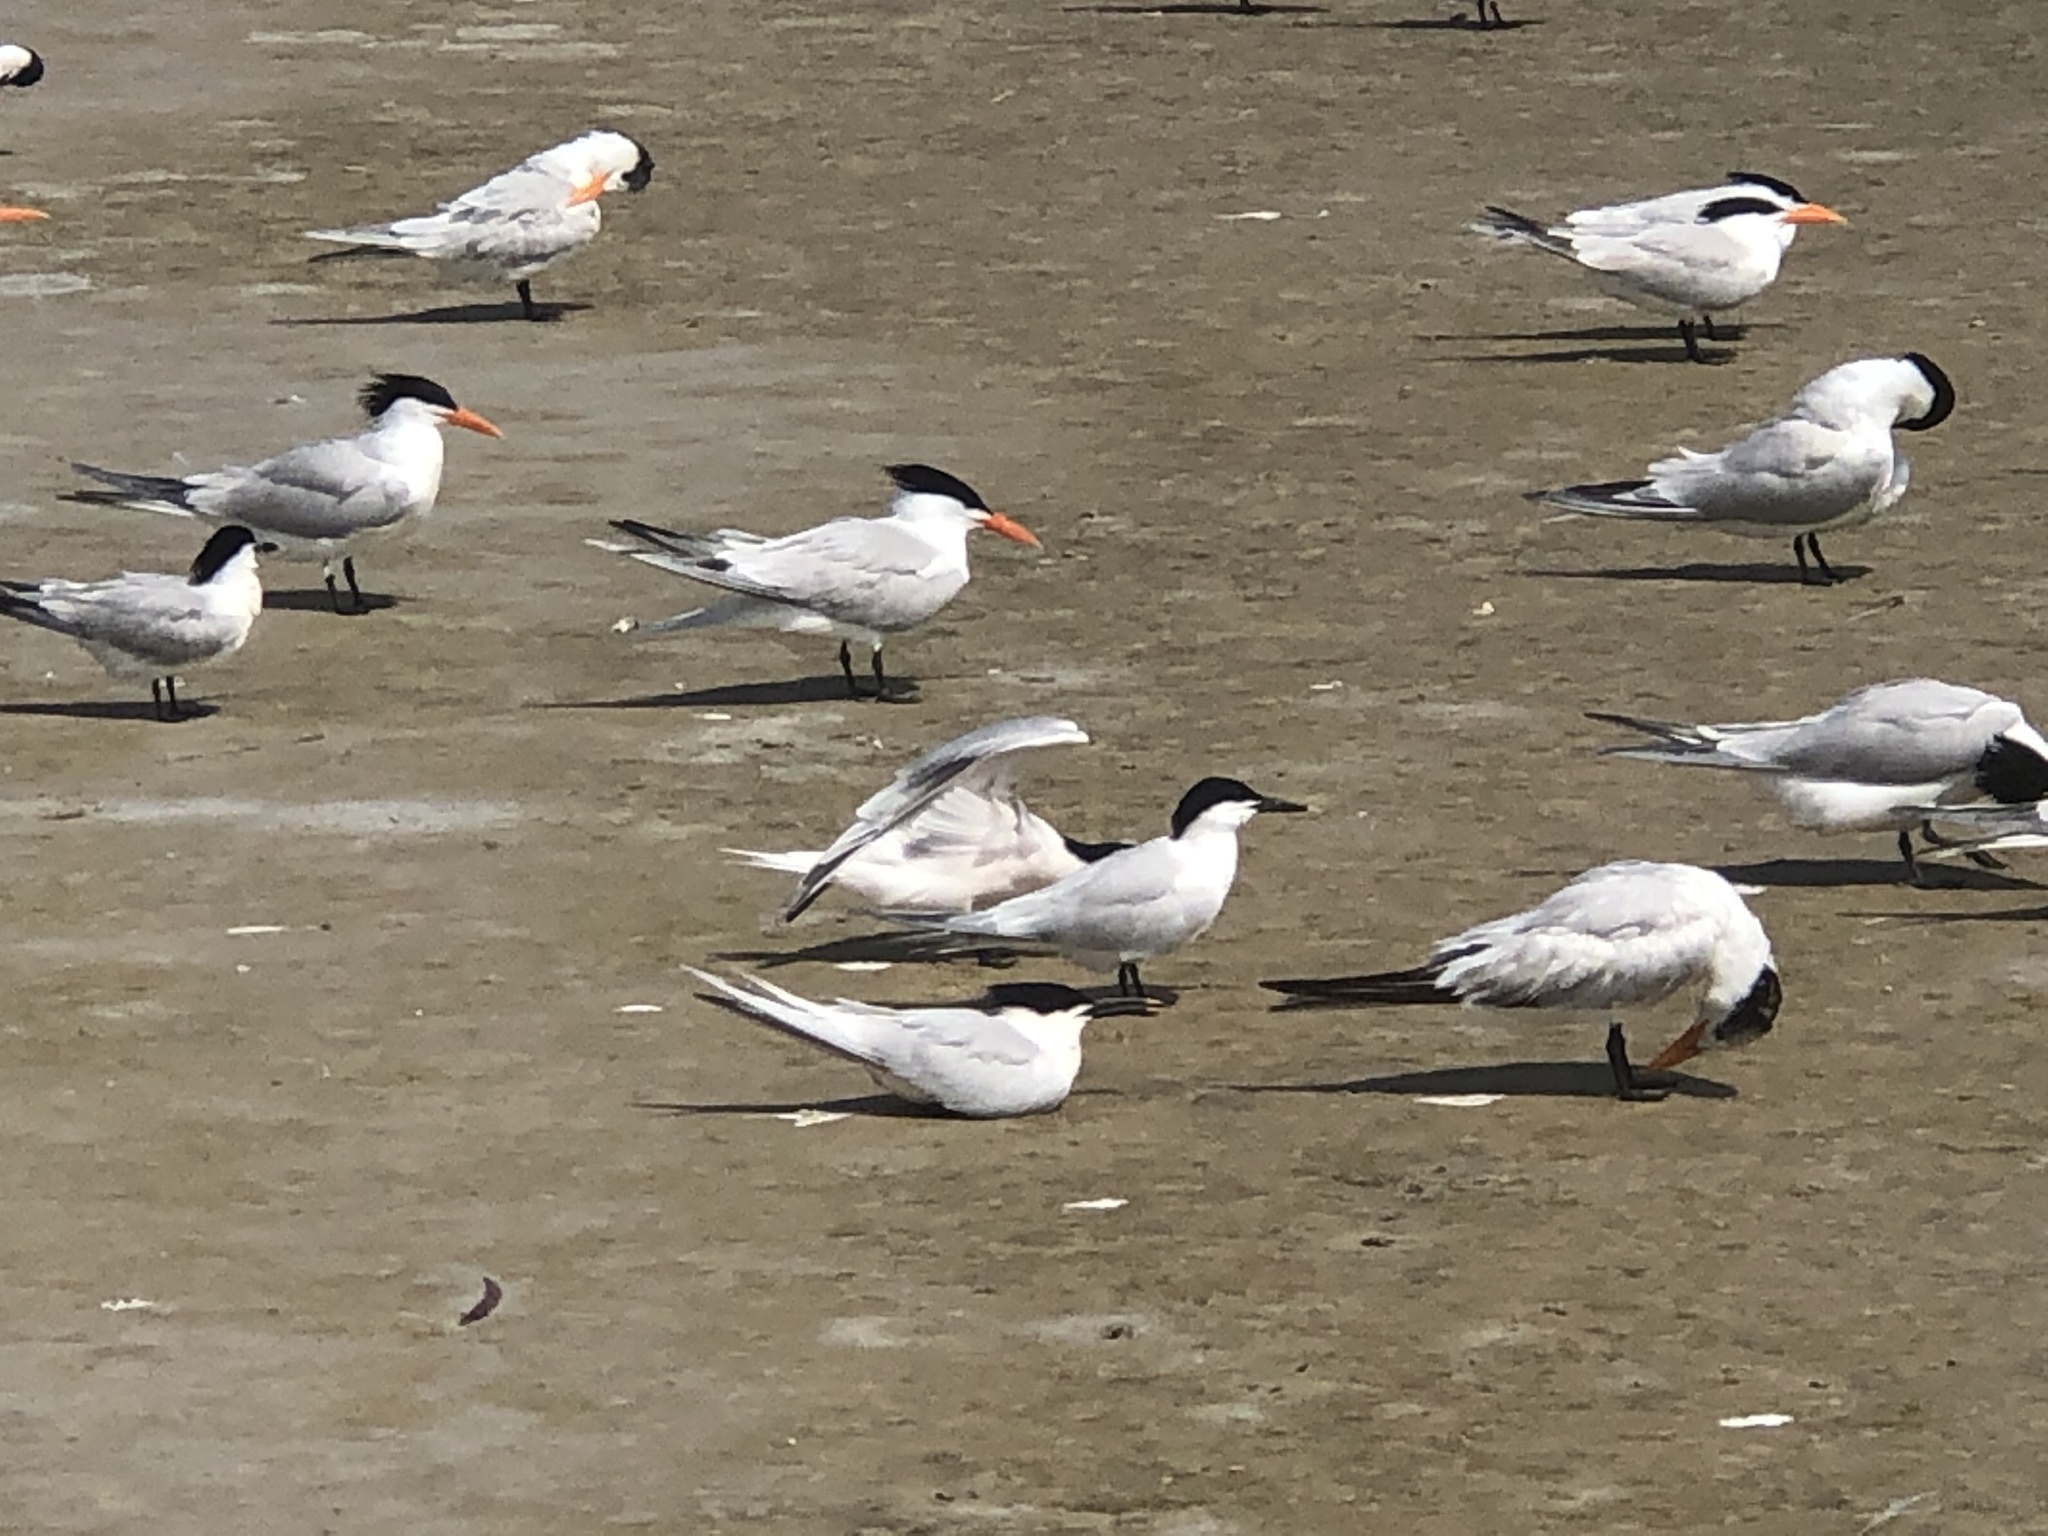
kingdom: Animalia
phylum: Chordata
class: Aves
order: Charadriiformes
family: Laridae
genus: Thalasseus
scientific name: Thalasseus sandvicensis
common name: Sandwich tern
